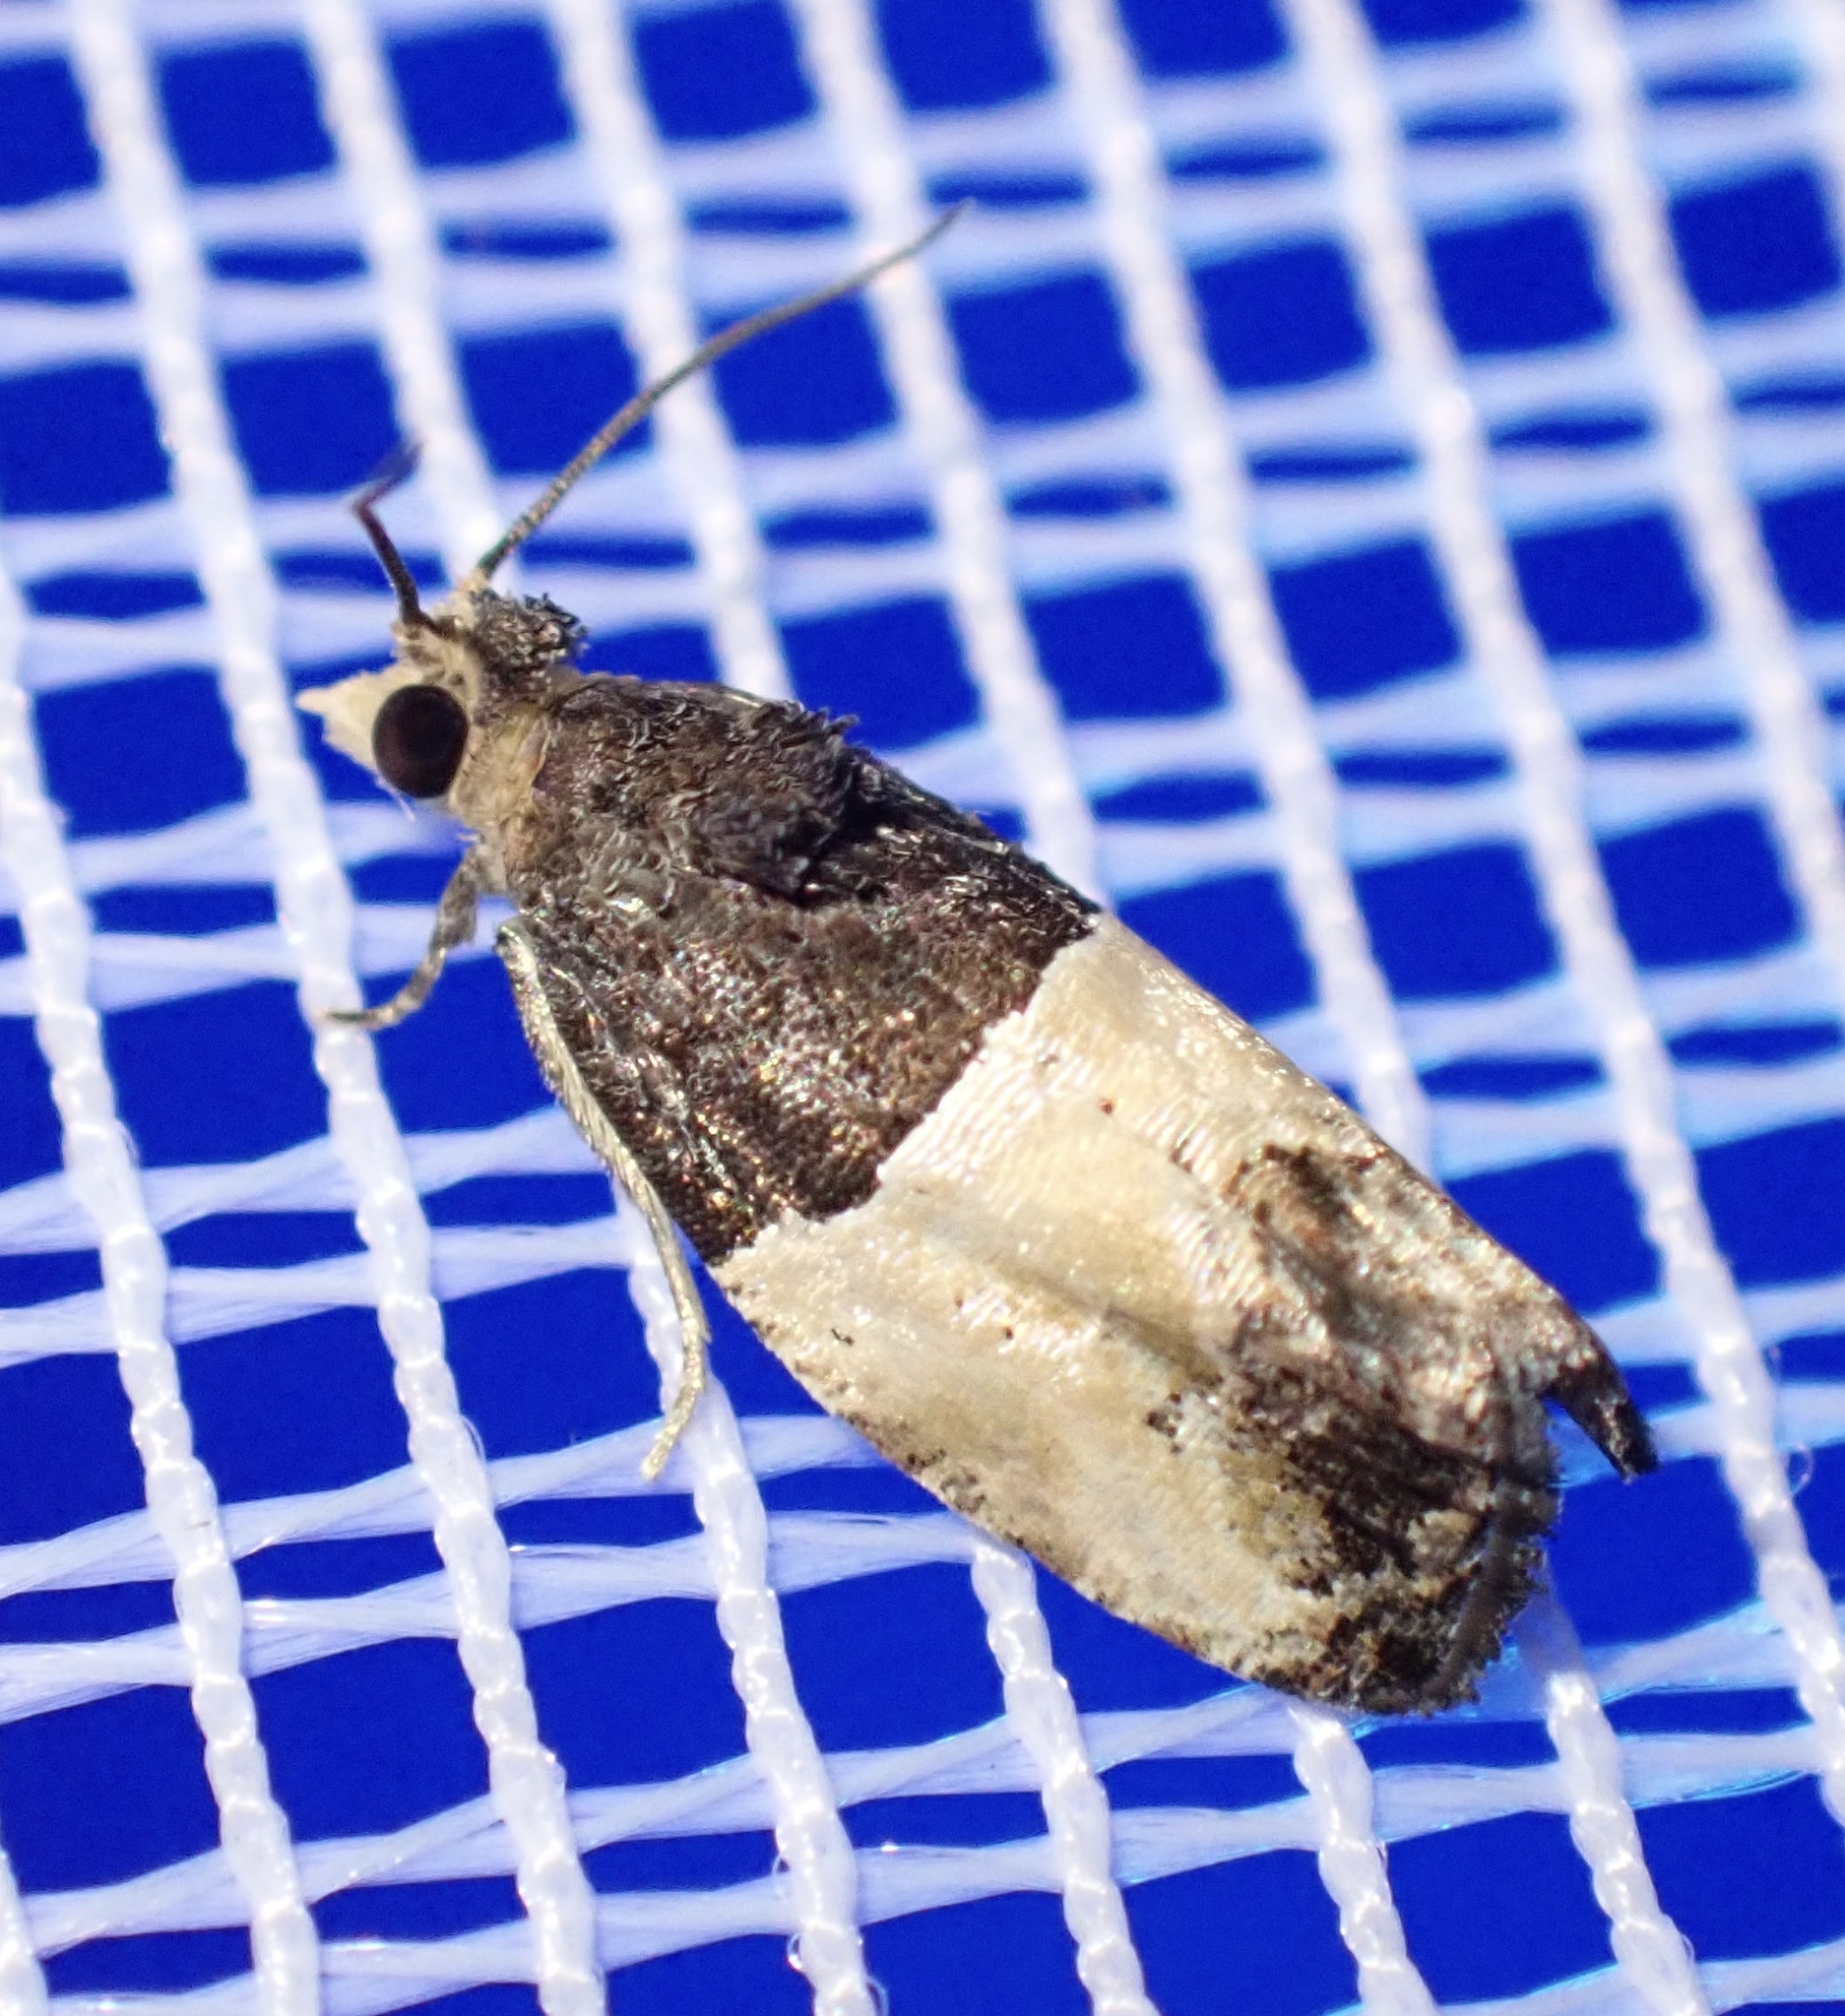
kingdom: Animalia
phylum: Arthropoda
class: Insecta
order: Lepidoptera
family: Tortricidae
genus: Neaspasia
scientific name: Neaspasia orthacta
